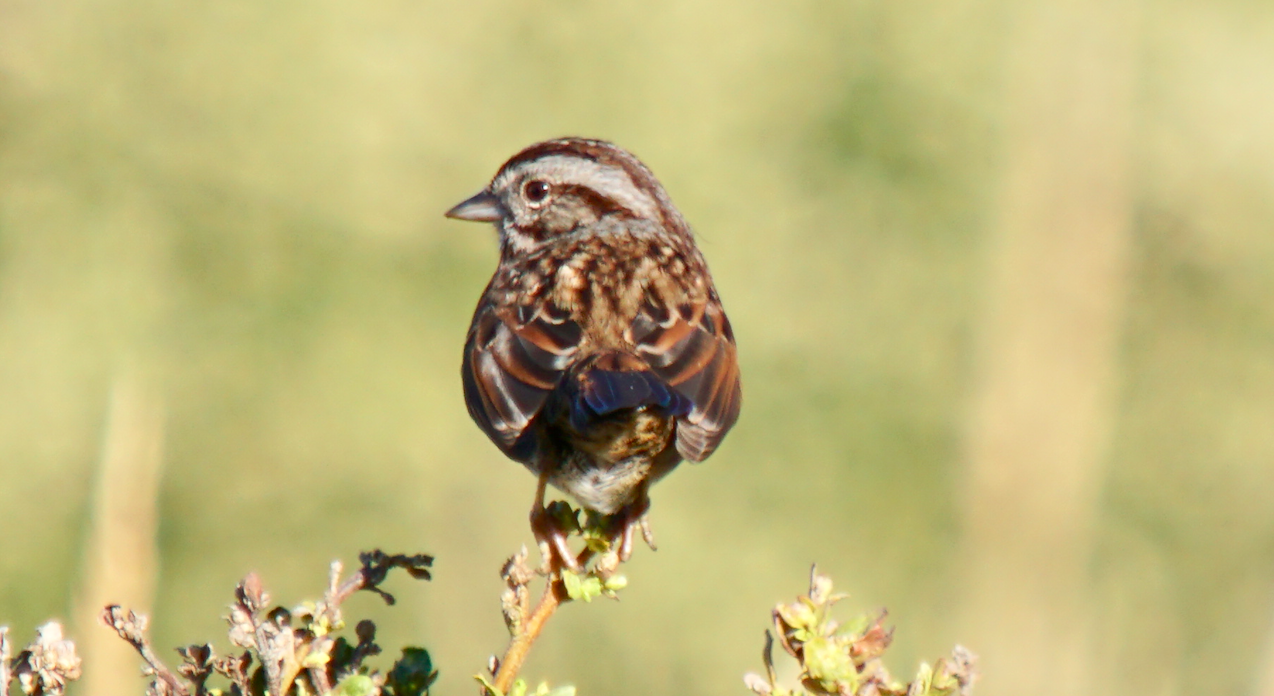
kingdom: Animalia
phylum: Chordata
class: Aves
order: Passeriformes
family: Passerellidae
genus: Melospiza
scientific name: Melospiza melodia
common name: Song sparrow
